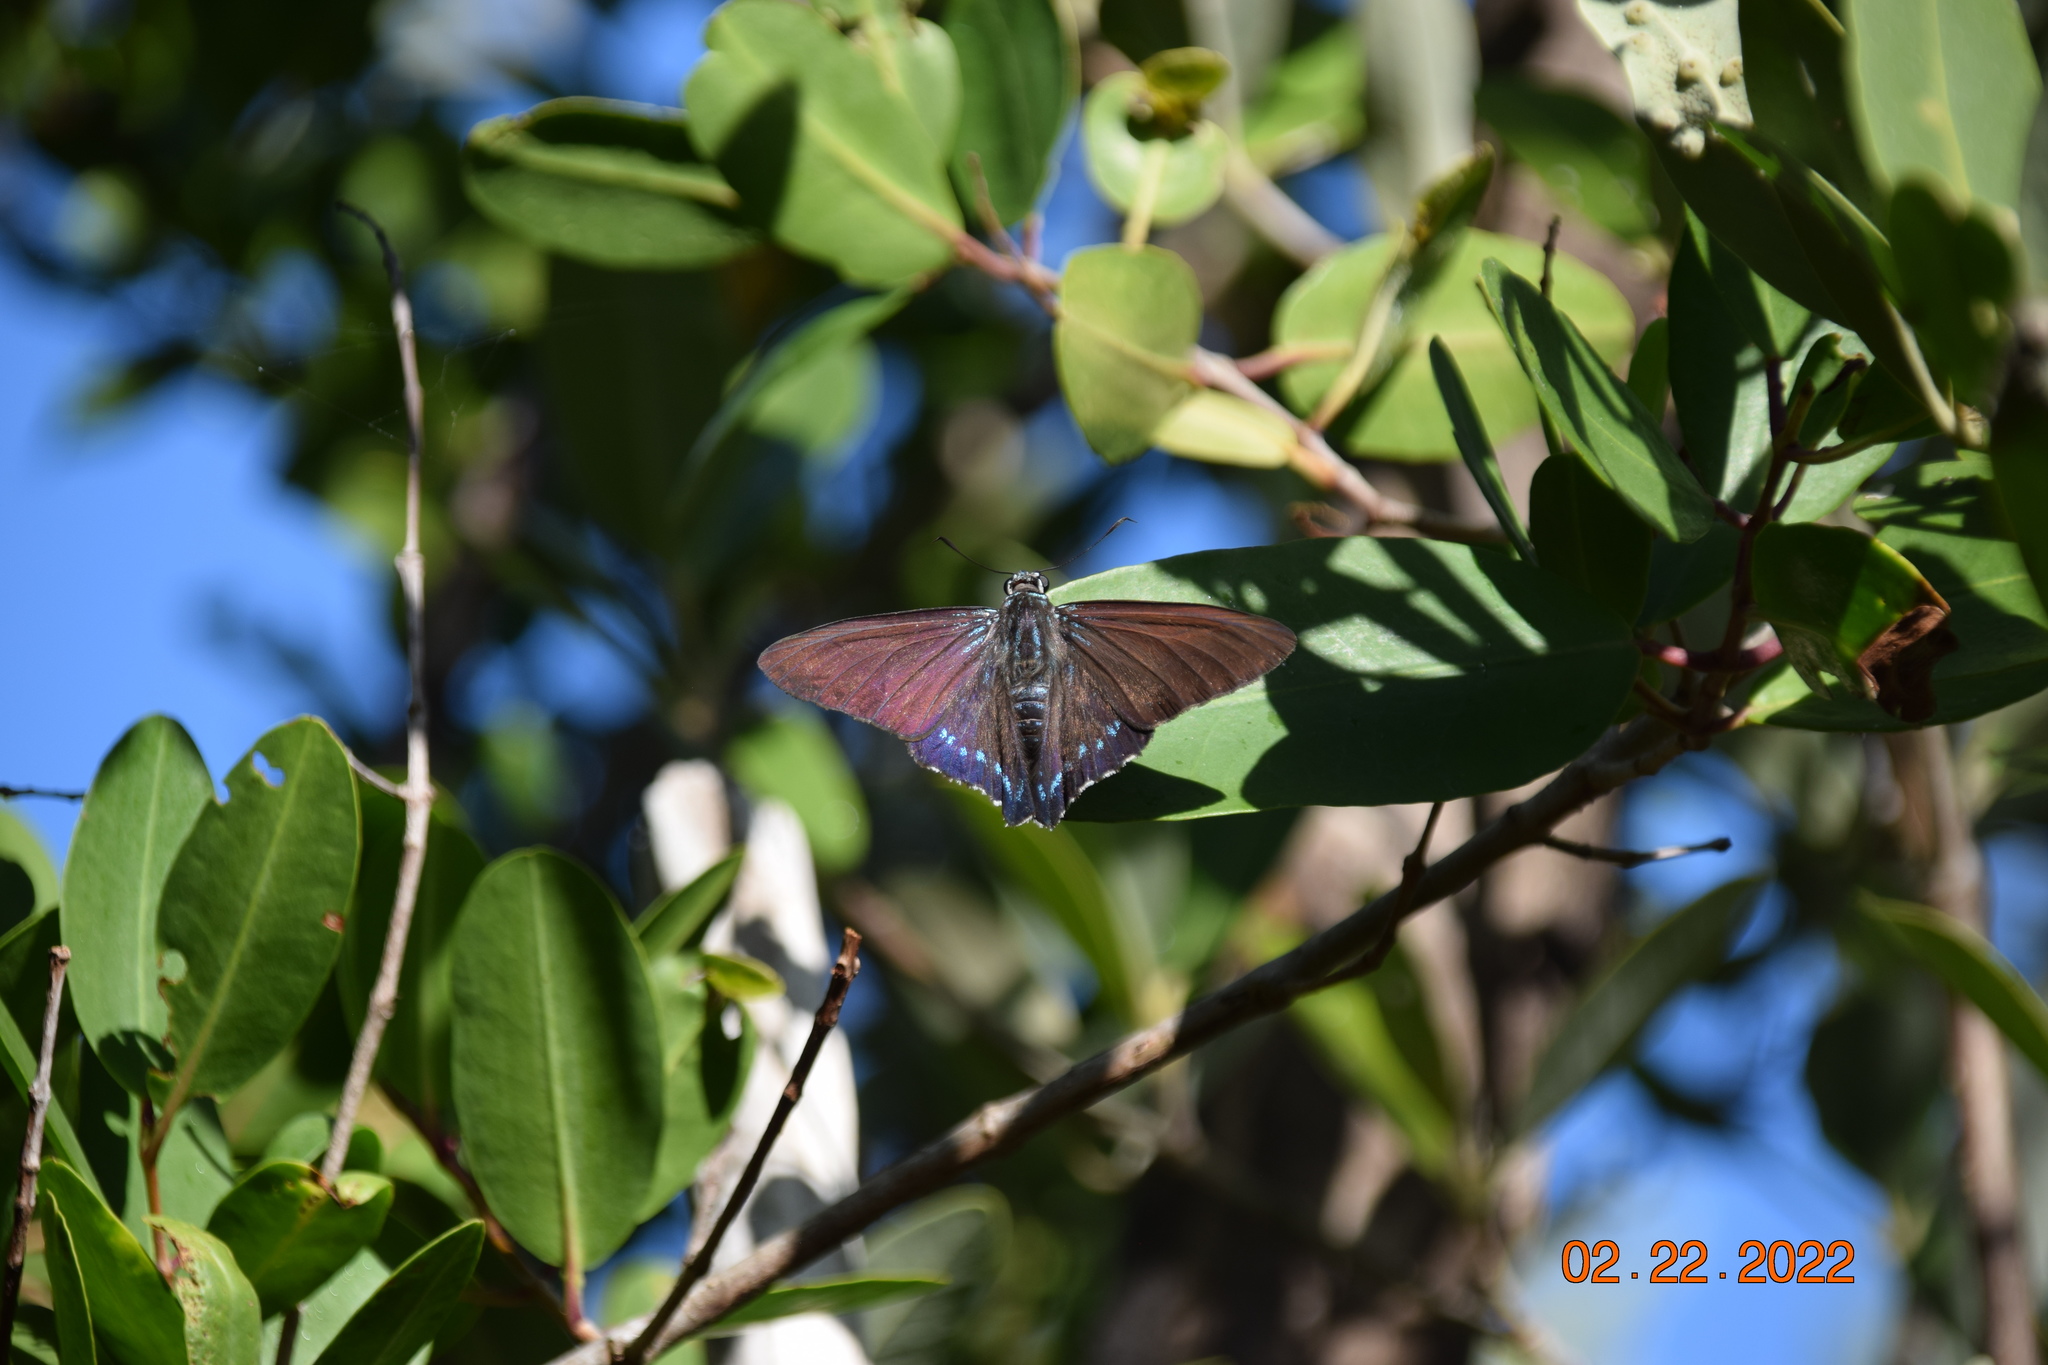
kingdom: Animalia
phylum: Arthropoda
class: Insecta
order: Lepidoptera
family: Hesperiidae
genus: Phocides
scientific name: Phocides pigmalion
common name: Mangrove skipper
